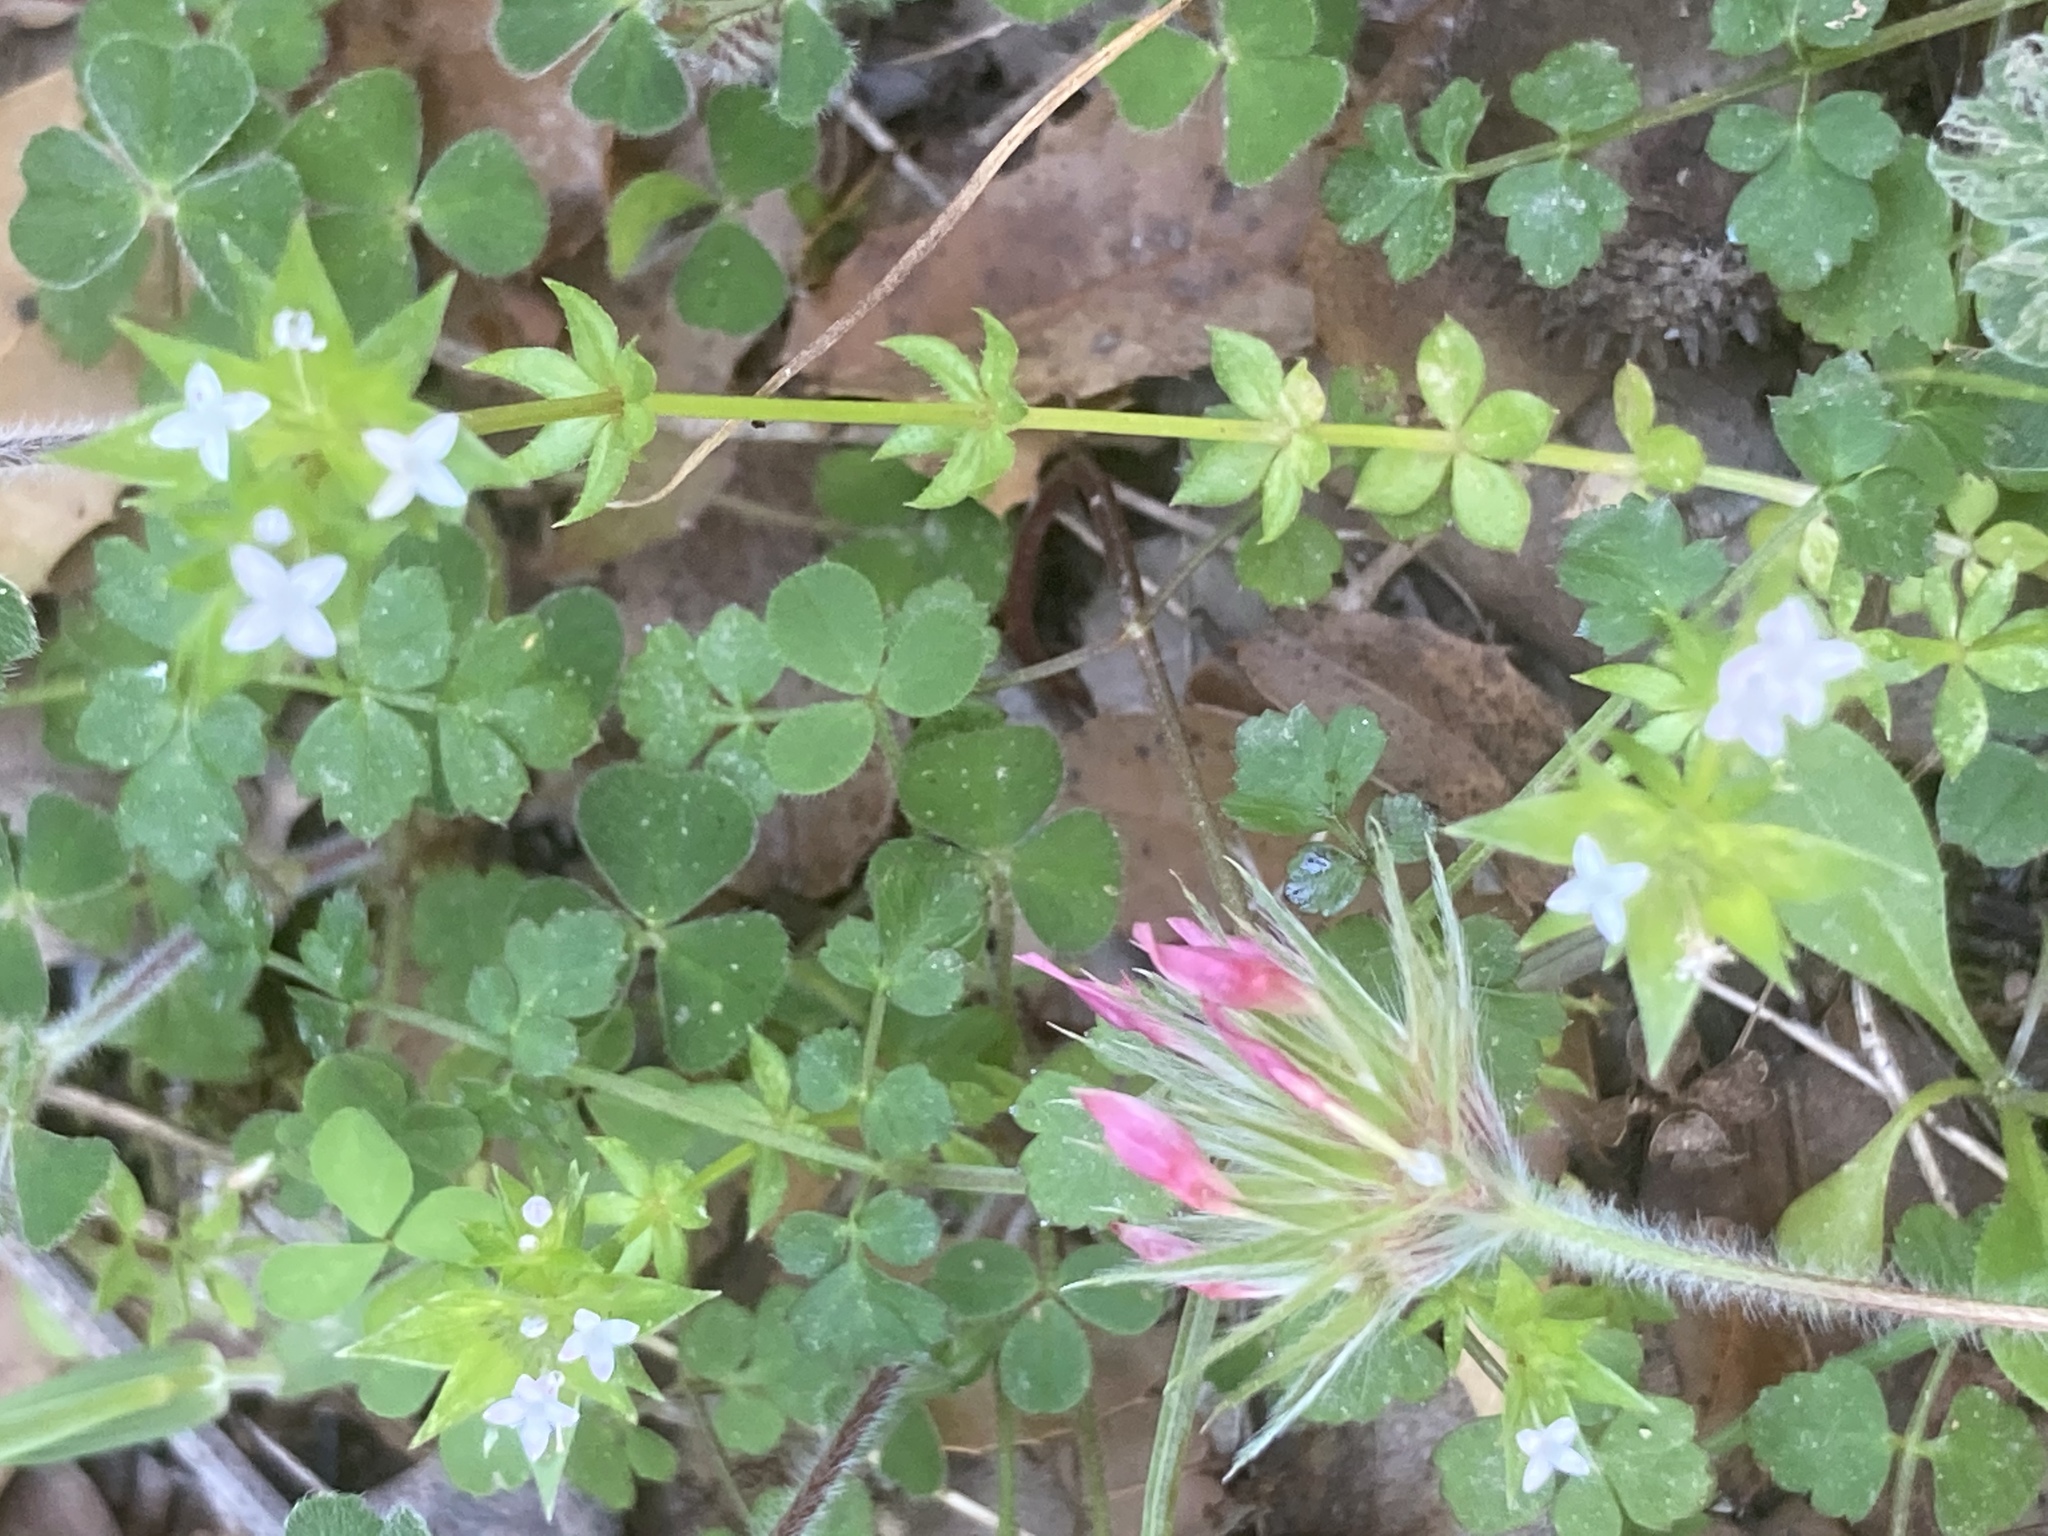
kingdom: Plantae
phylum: Tracheophyta
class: Magnoliopsida
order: Fabales
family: Fabaceae
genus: Trifolium
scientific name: Trifolium stellatum
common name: Starry clover
